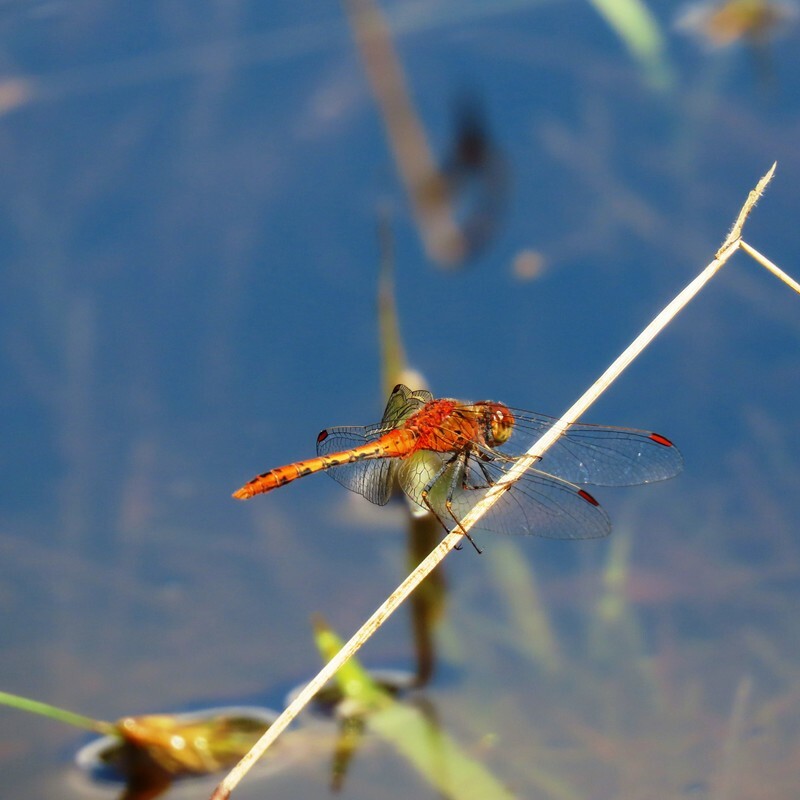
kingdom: Animalia
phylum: Arthropoda
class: Insecta
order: Odonata
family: Libellulidae
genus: Diplacodes
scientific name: Diplacodes bipunctata
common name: Red percher dragonfly
